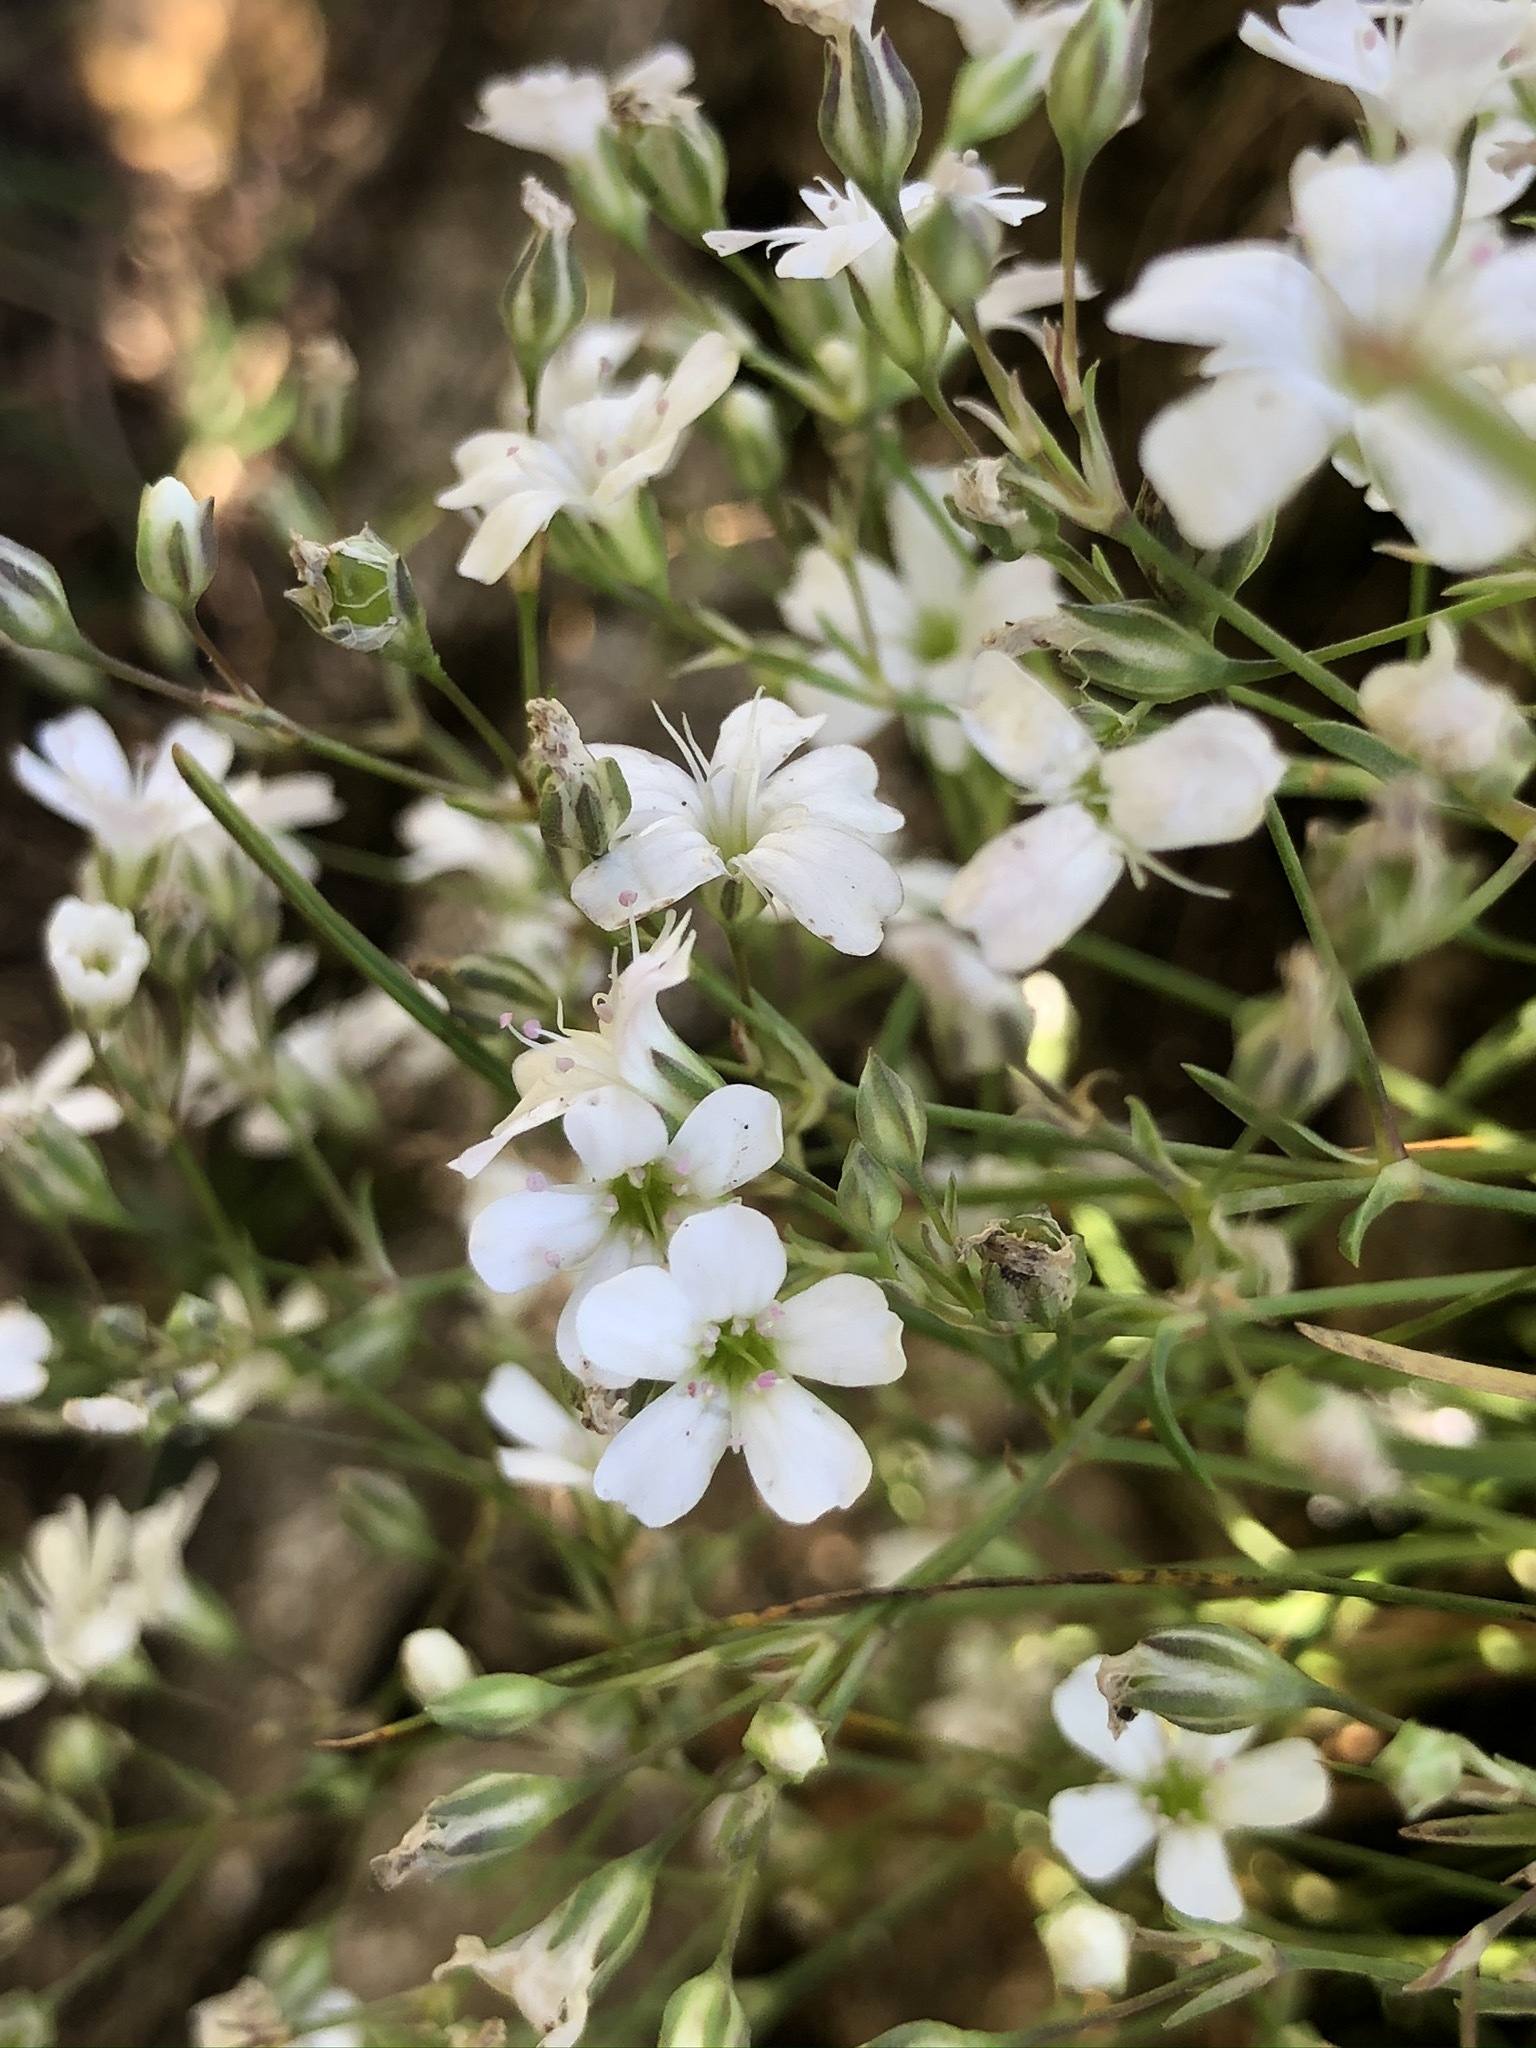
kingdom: Plantae
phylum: Tracheophyta
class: Magnoliopsida
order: Caryophyllales
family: Caryophyllaceae
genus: Gypsophila
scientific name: Gypsophila repens
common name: Creeping baby's-breath
